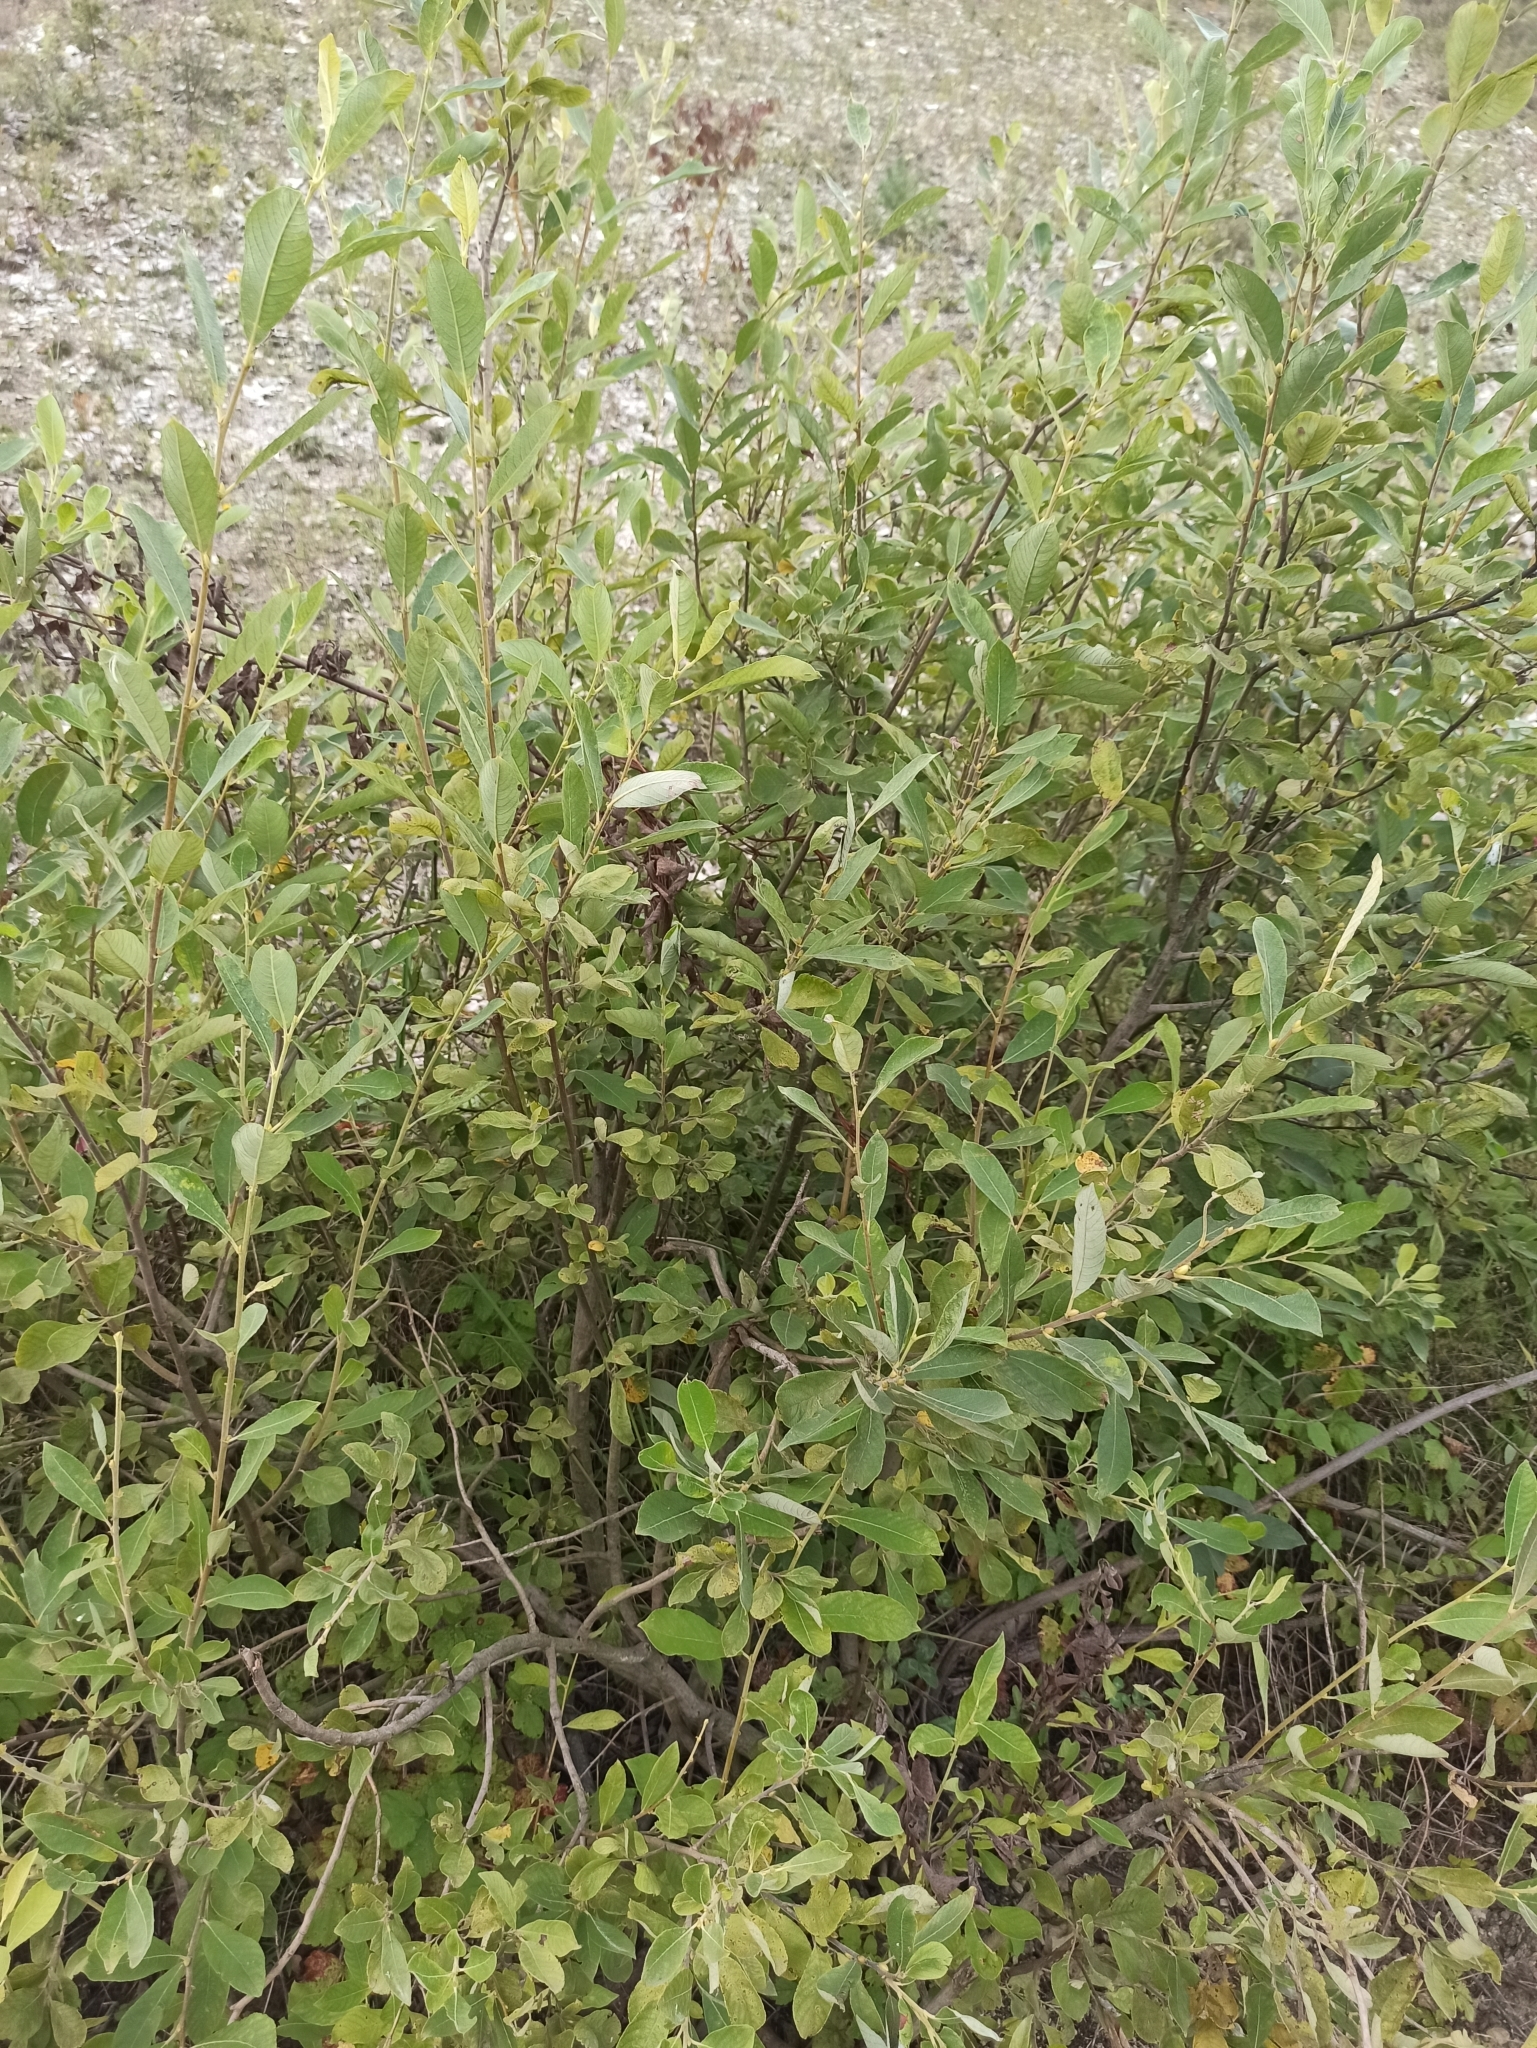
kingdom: Plantae
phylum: Tracheophyta
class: Magnoliopsida
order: Malpighiales
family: Salicaceae
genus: Salix
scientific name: Salix cinerea
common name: Common sallow
